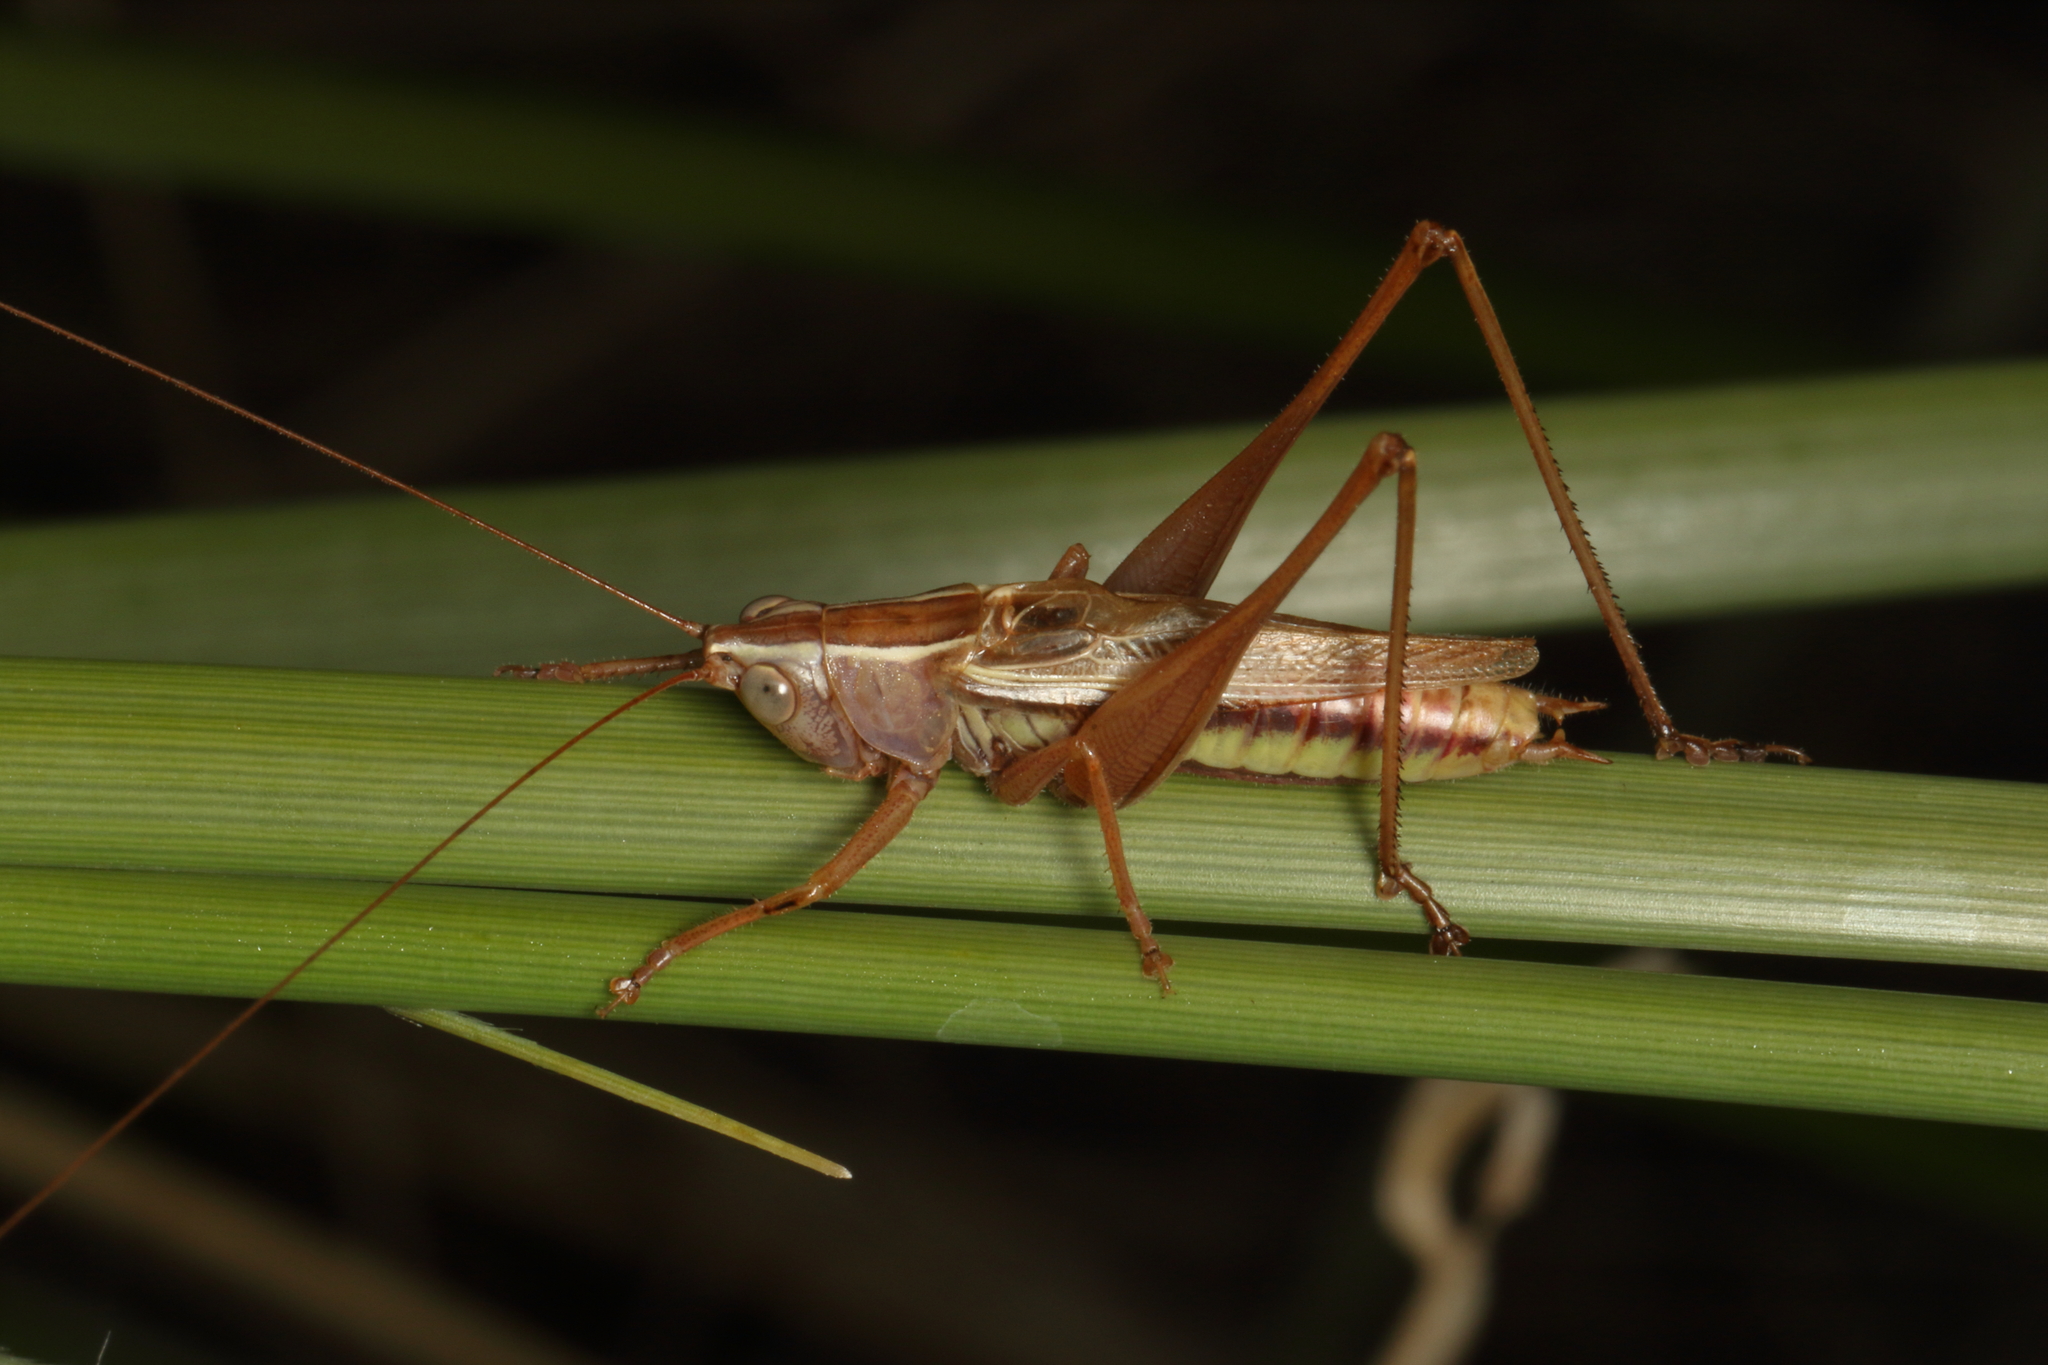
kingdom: Animalia
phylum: Arthropoda
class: Insecta
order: Orthoptera
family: Tettigoniidae
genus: Conocephalus
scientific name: Conocephalus albescens
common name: Whitish meadow katydid
